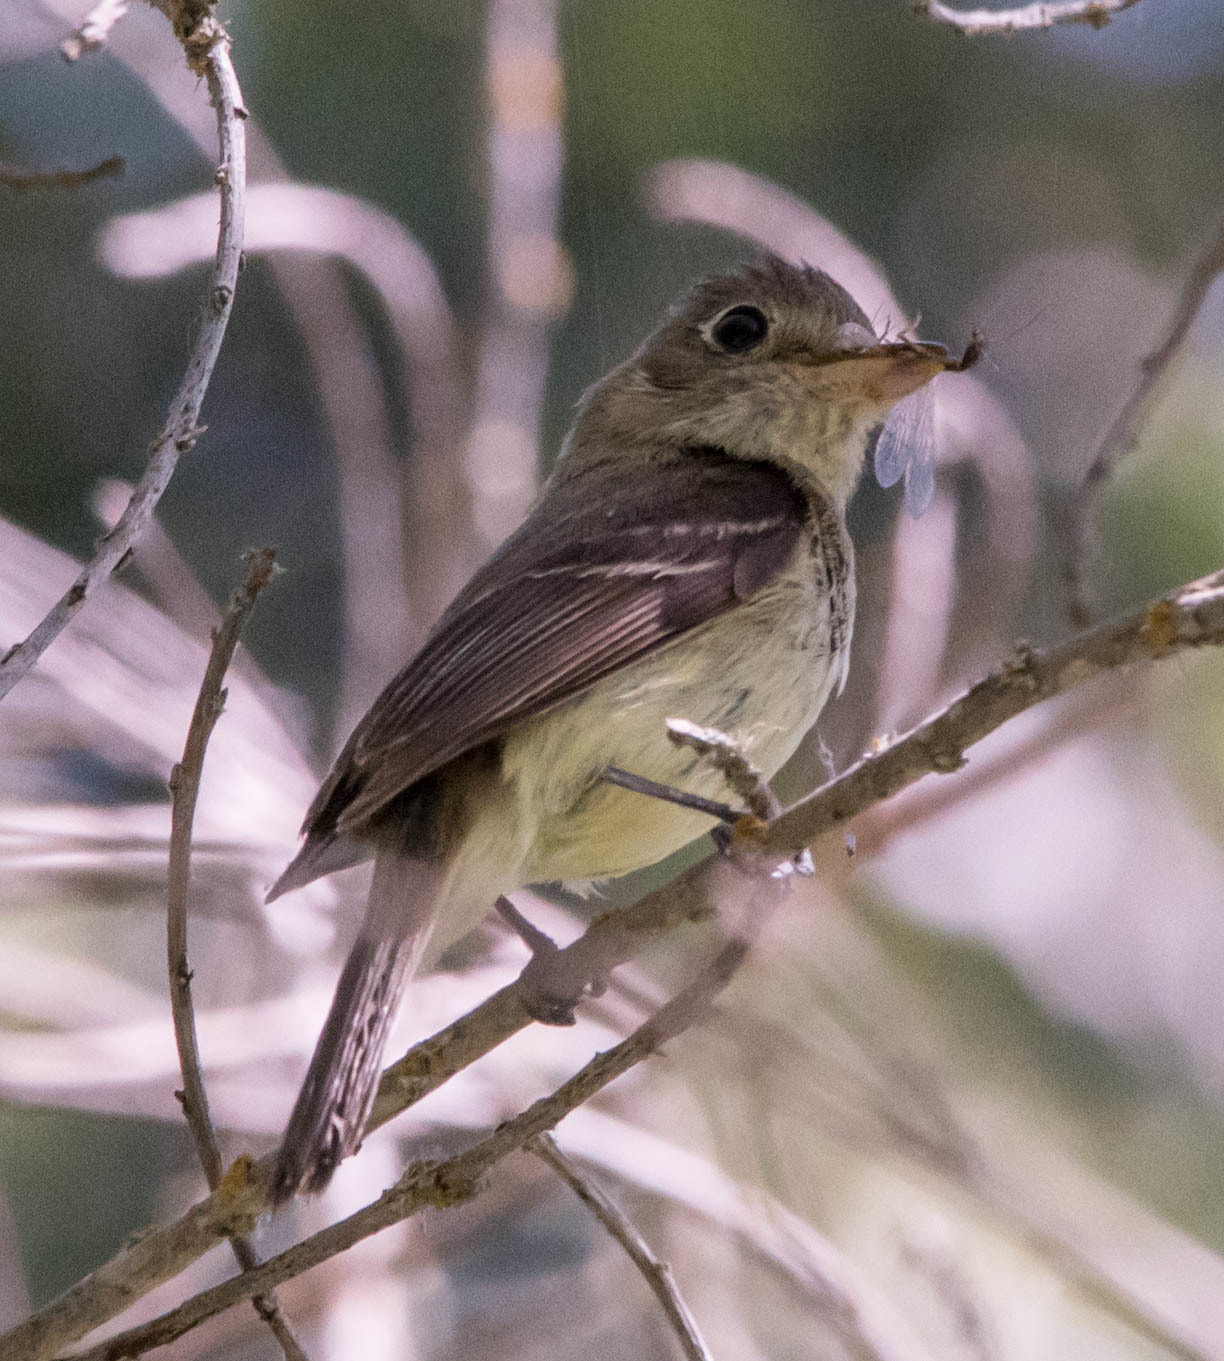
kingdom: Animalia
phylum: Chordata
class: Aves
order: Passeriformes
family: Tyrannidae
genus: Empidonax
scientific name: Empidonax difficilis
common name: Pacific-slope flycatcher
